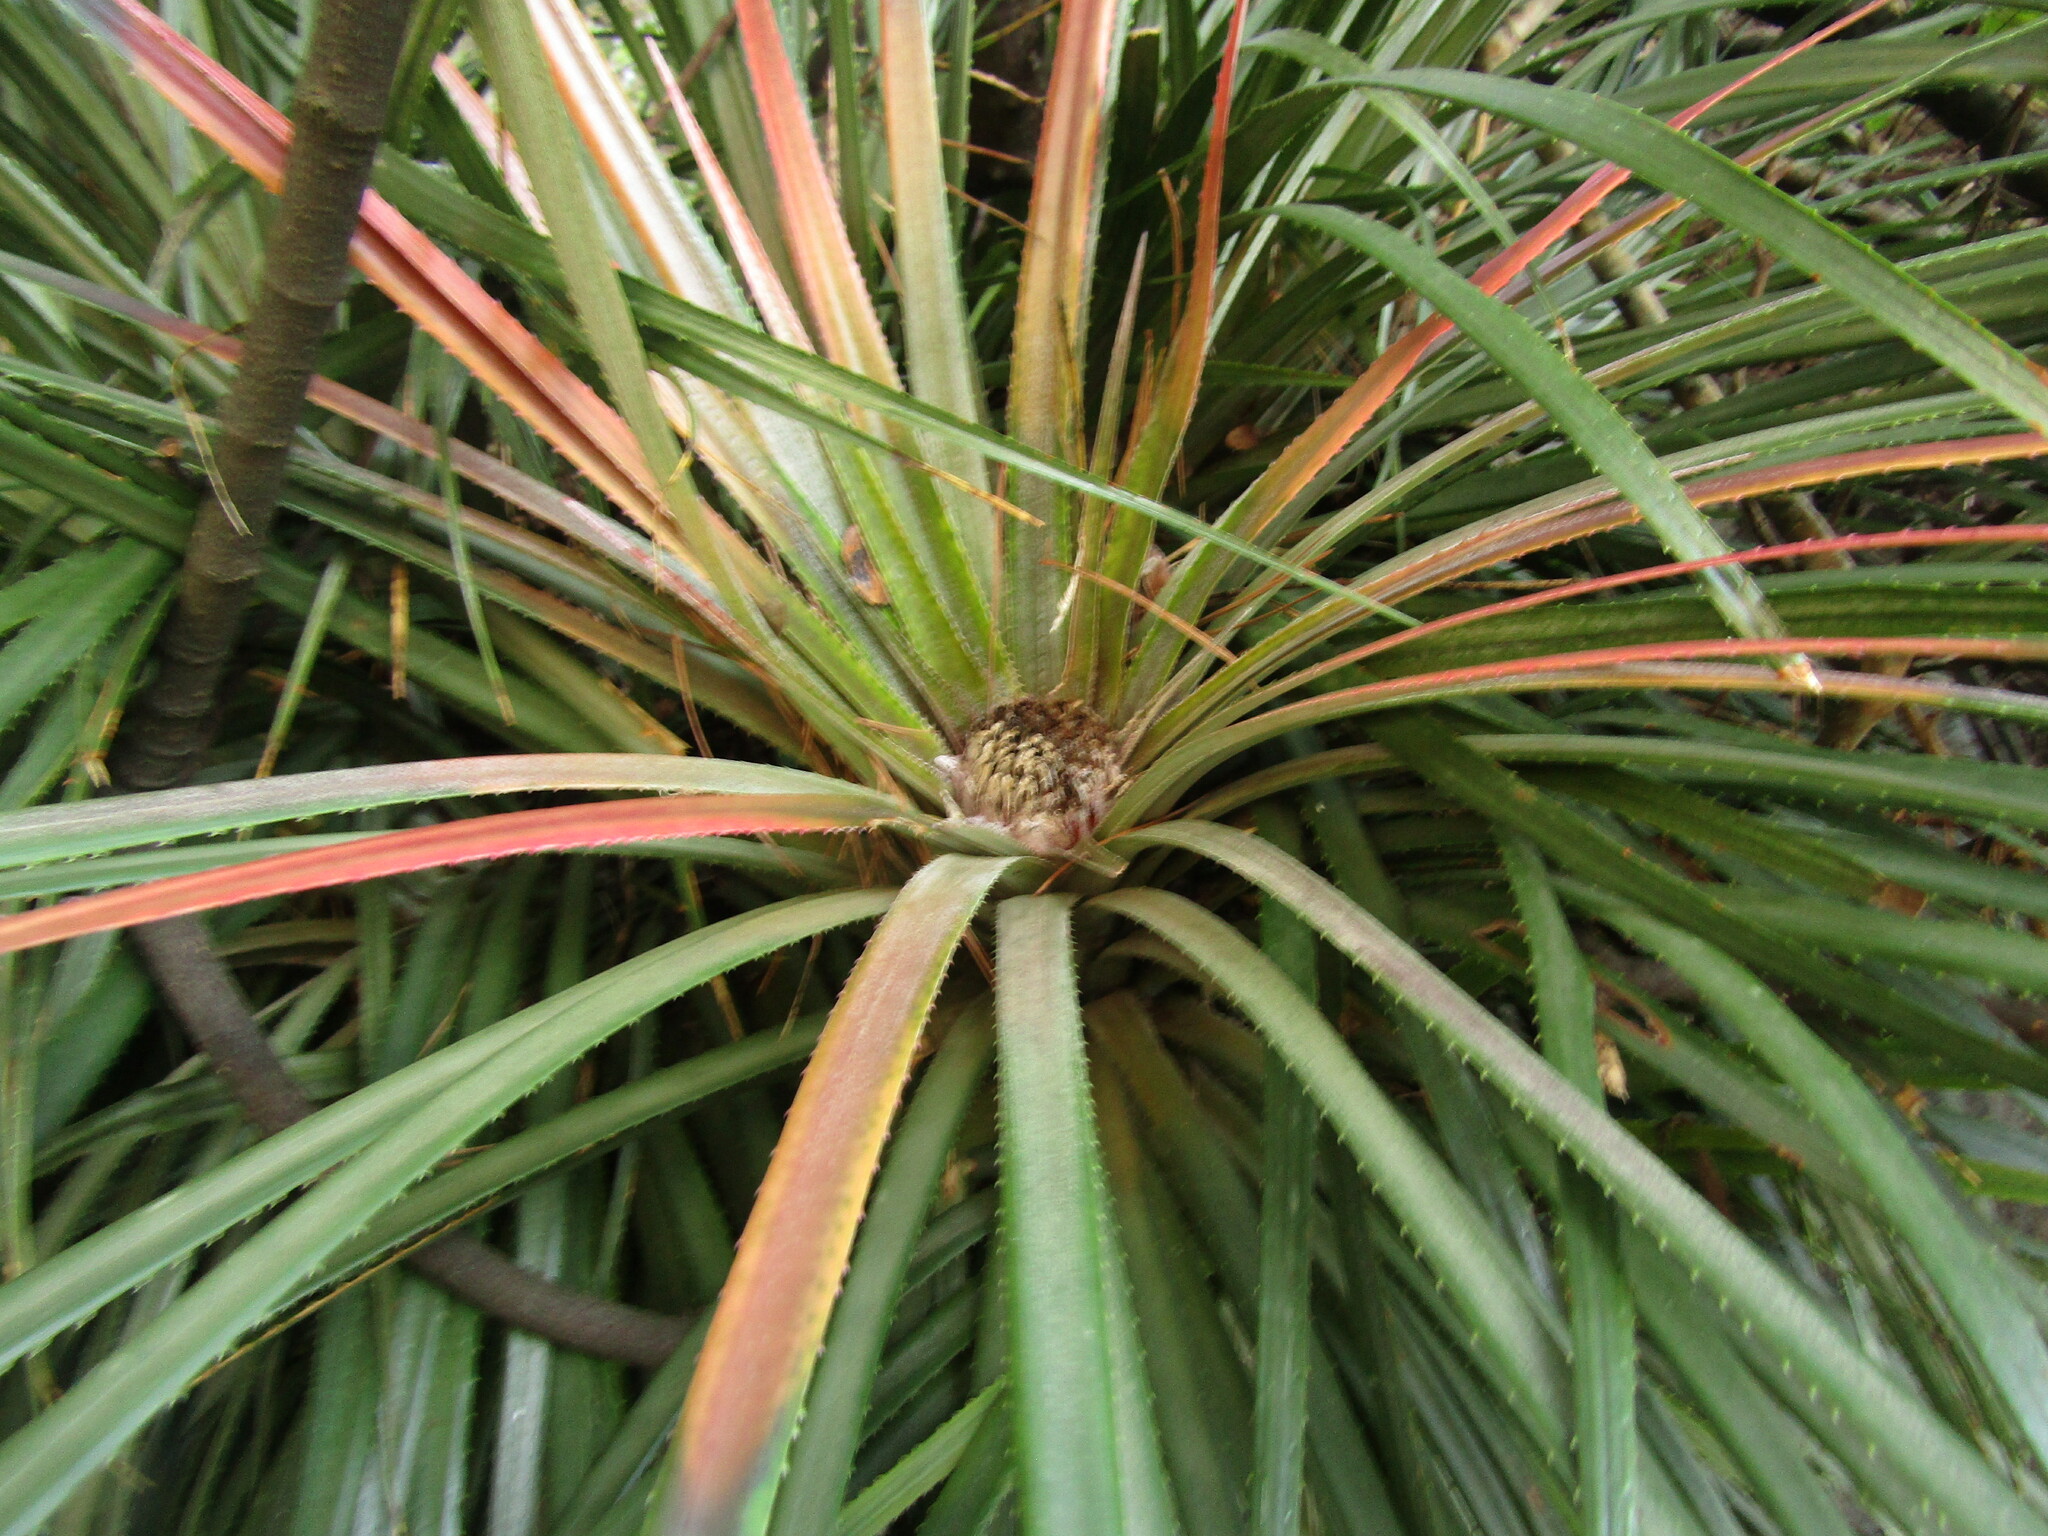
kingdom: Plantae
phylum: Tracheophyta
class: Liliopsida
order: Poales
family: Bromeliaceae
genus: Fascicularia
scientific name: Fascicularia bicolor
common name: Rhodostachys
